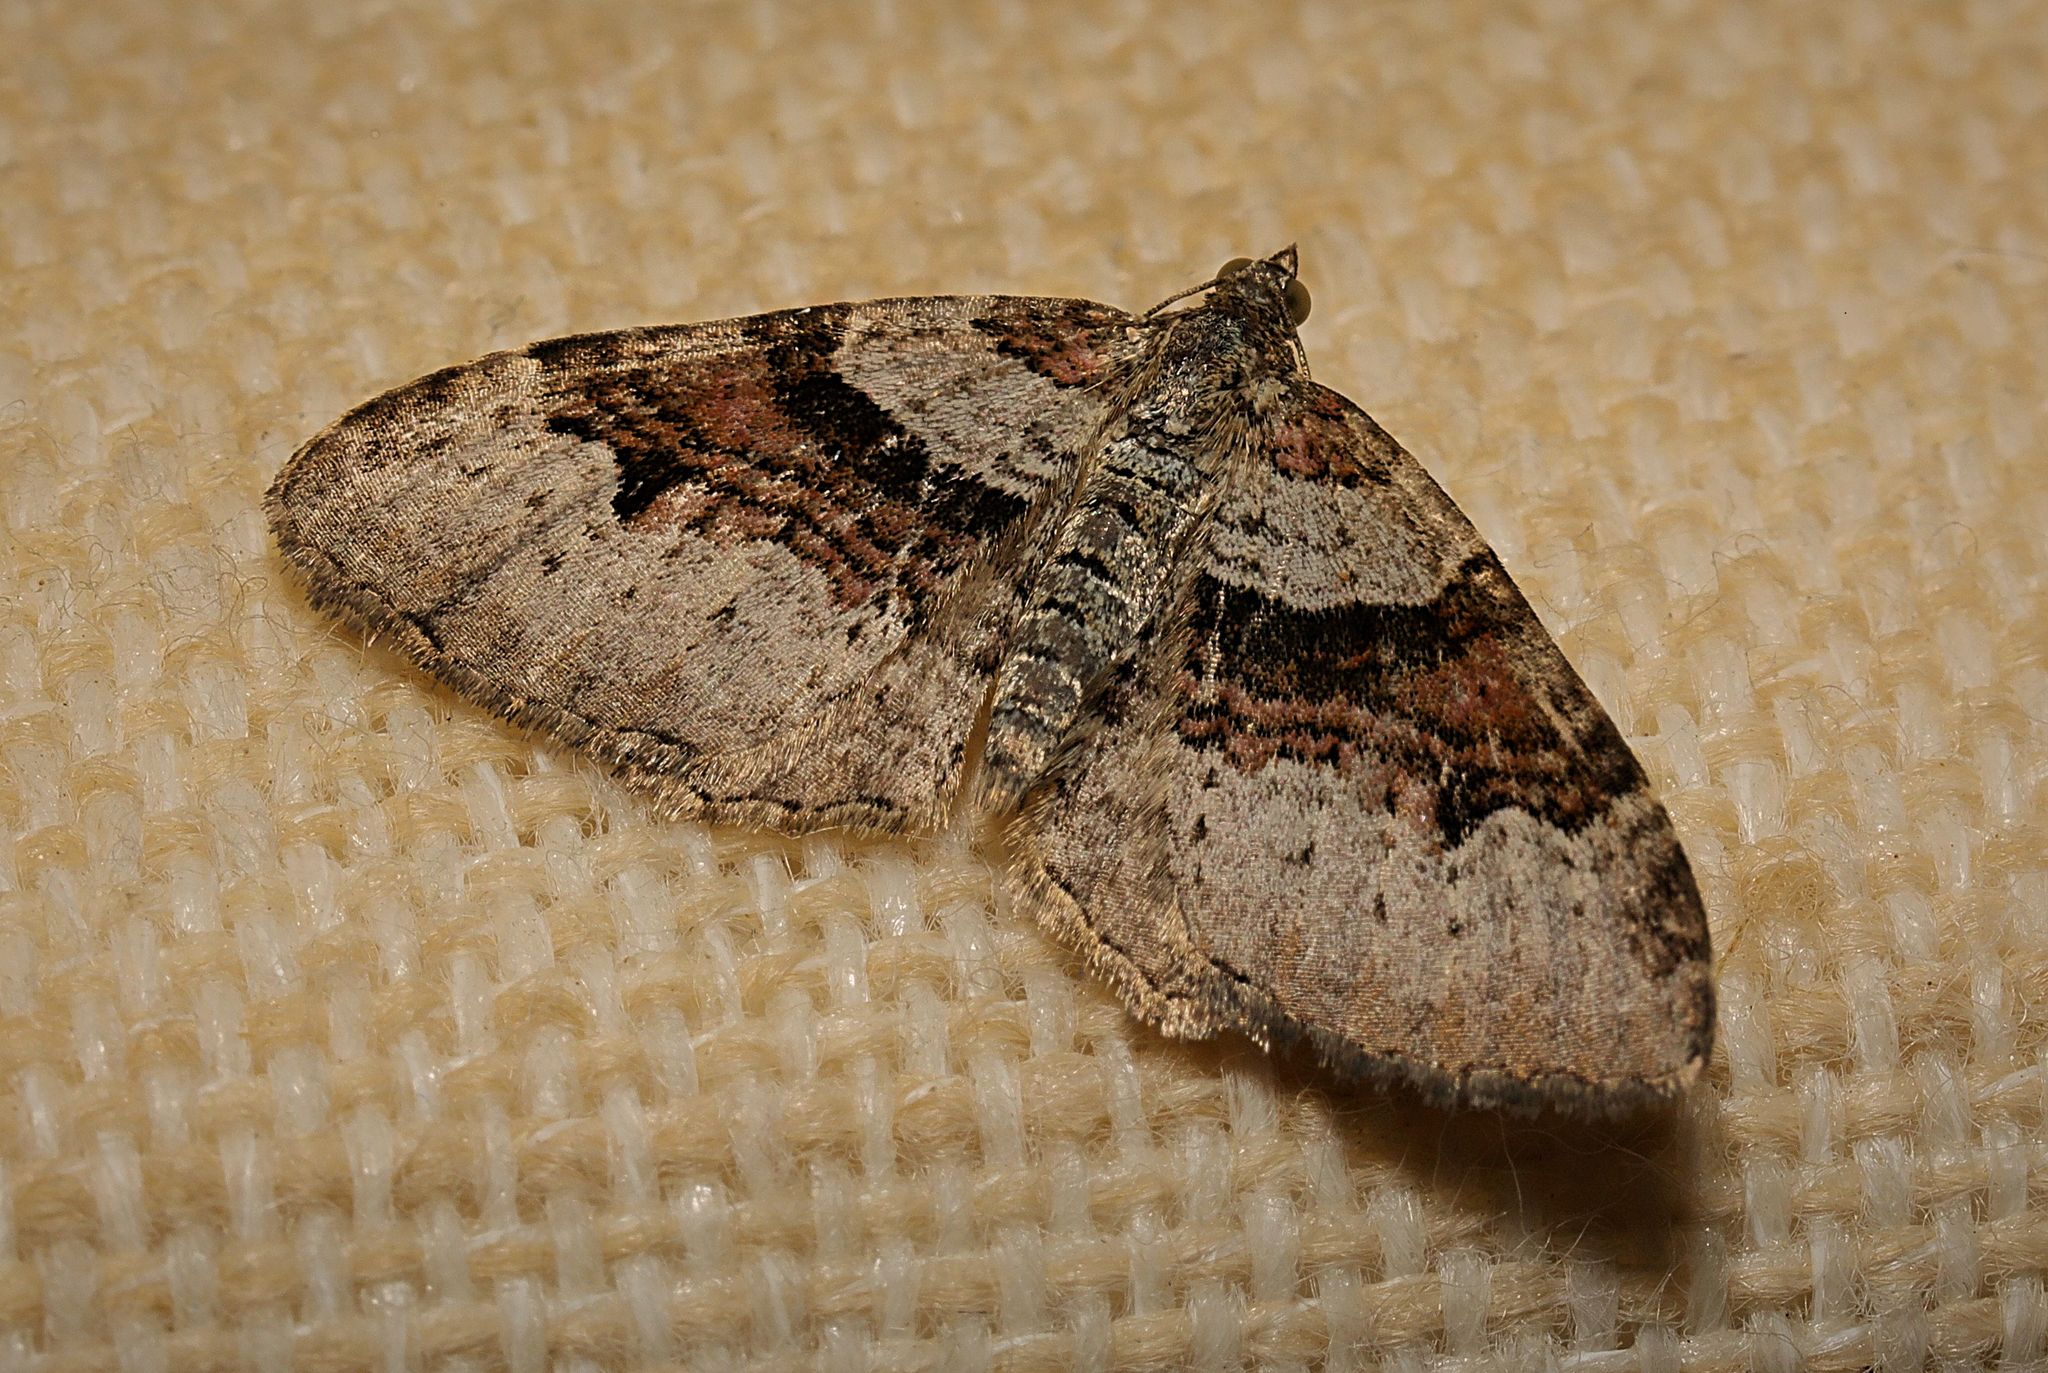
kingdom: Animalia
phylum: Arthropoda
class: Insecta
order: Lepidoptera
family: Geometridae
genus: Xanthorhoe
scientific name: Xanthorhoe designata
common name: Flame carpet
